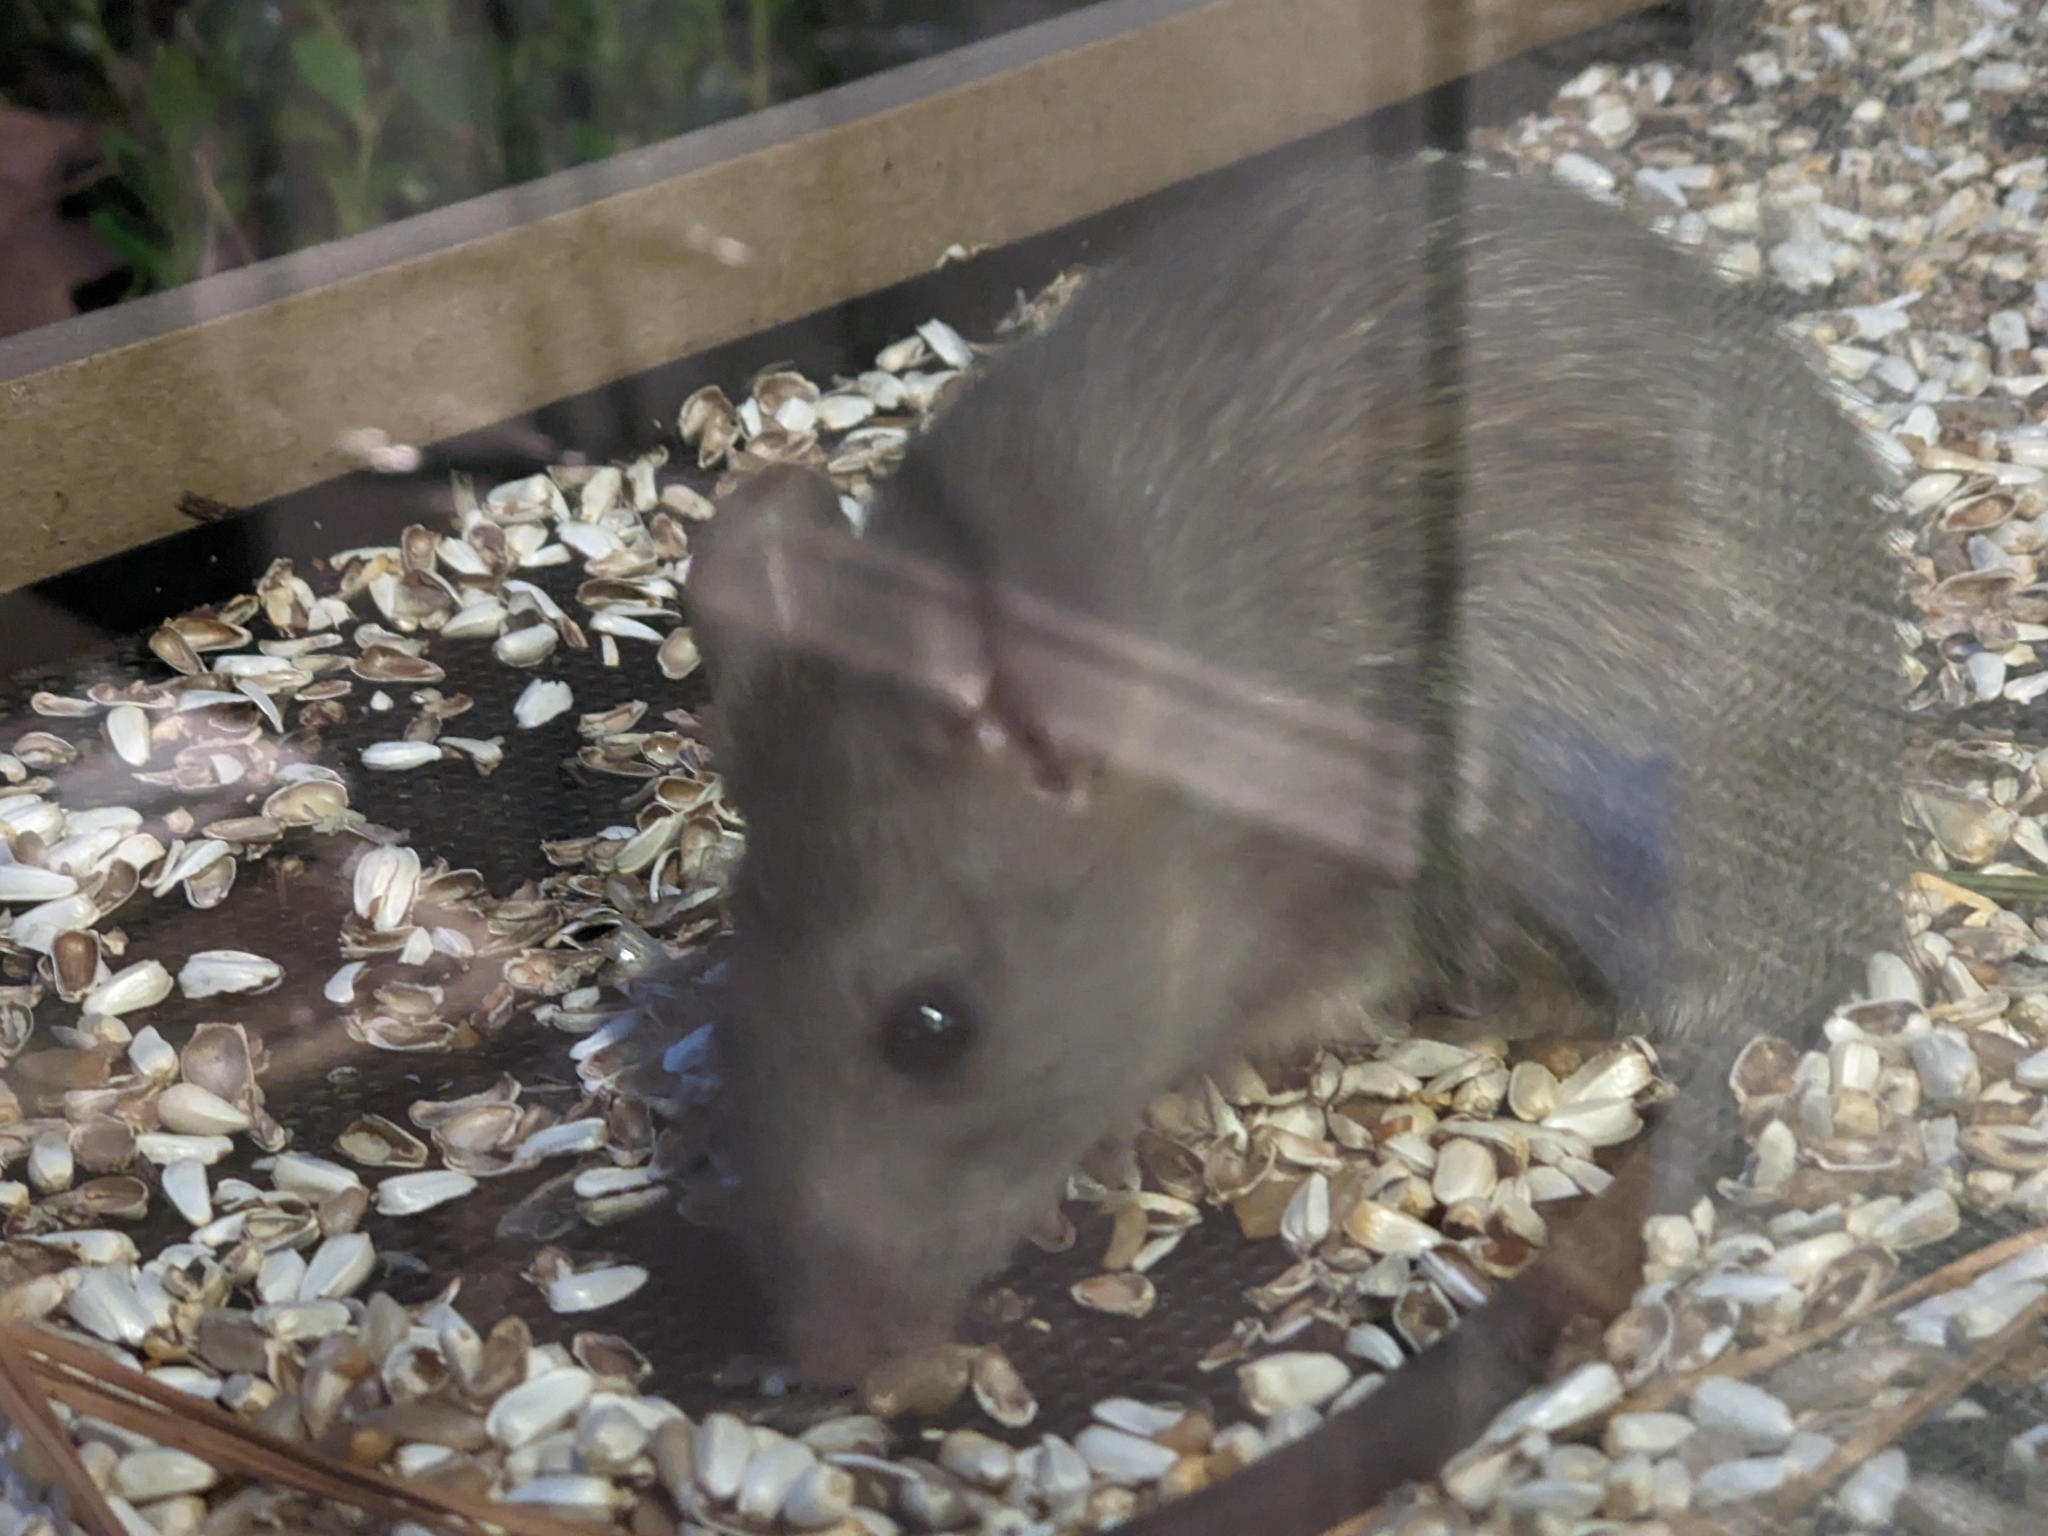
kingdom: Animalia
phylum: Chordata
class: Mammalia
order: Rodentia
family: Muridae
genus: Rattus
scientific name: Rattus rattus
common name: Black rat
